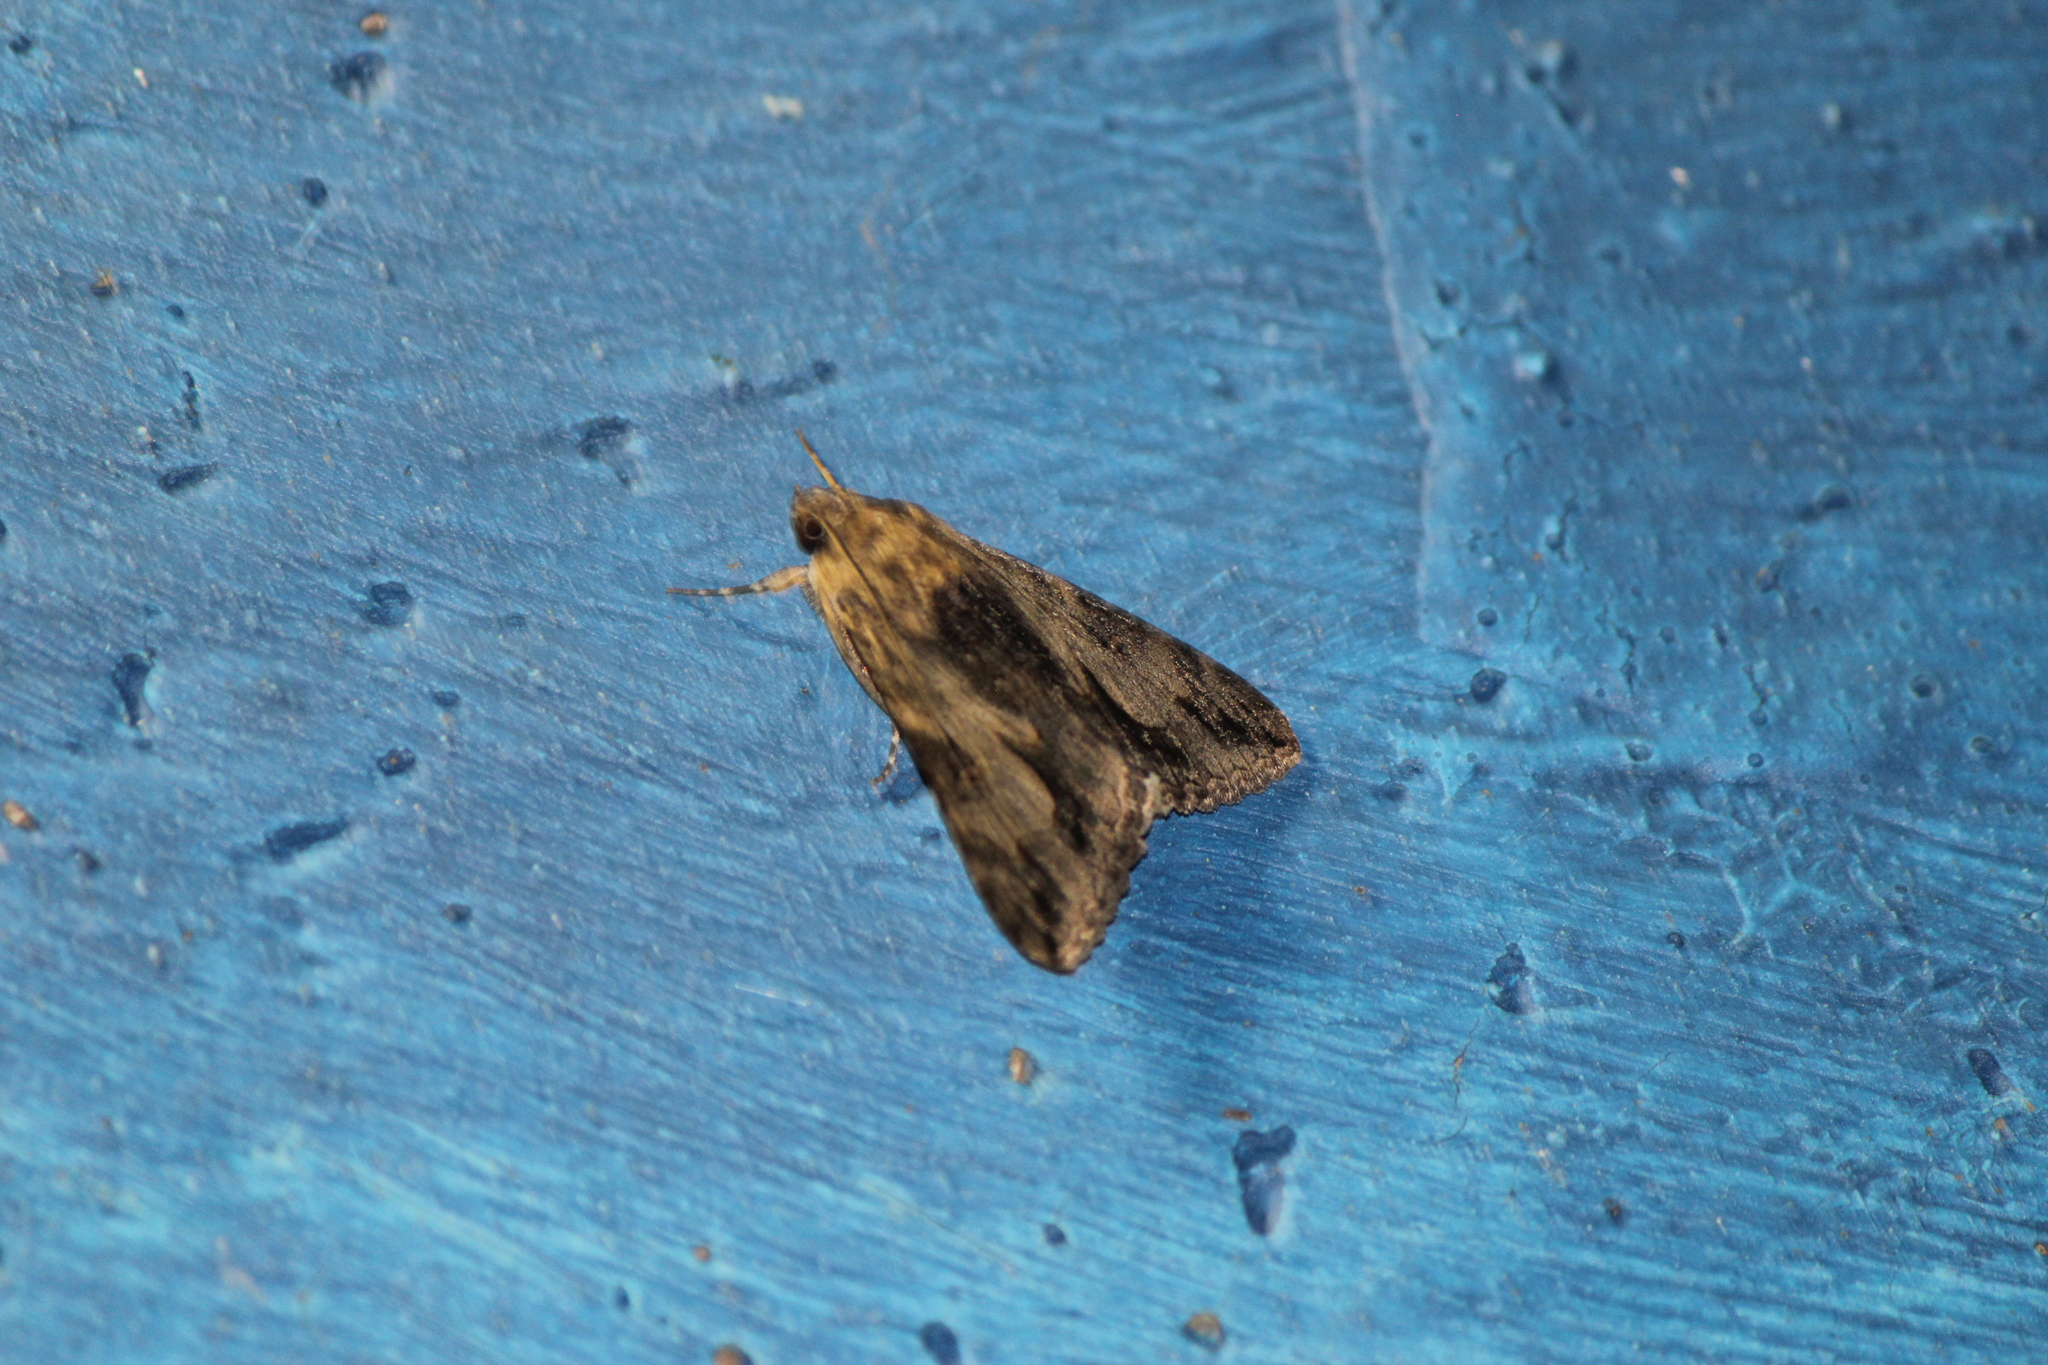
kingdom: Animalia
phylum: Arthropoda
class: Insecta
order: Lepidoptera
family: Erebidae
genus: Melipotis
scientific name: Melipotis jucunda
